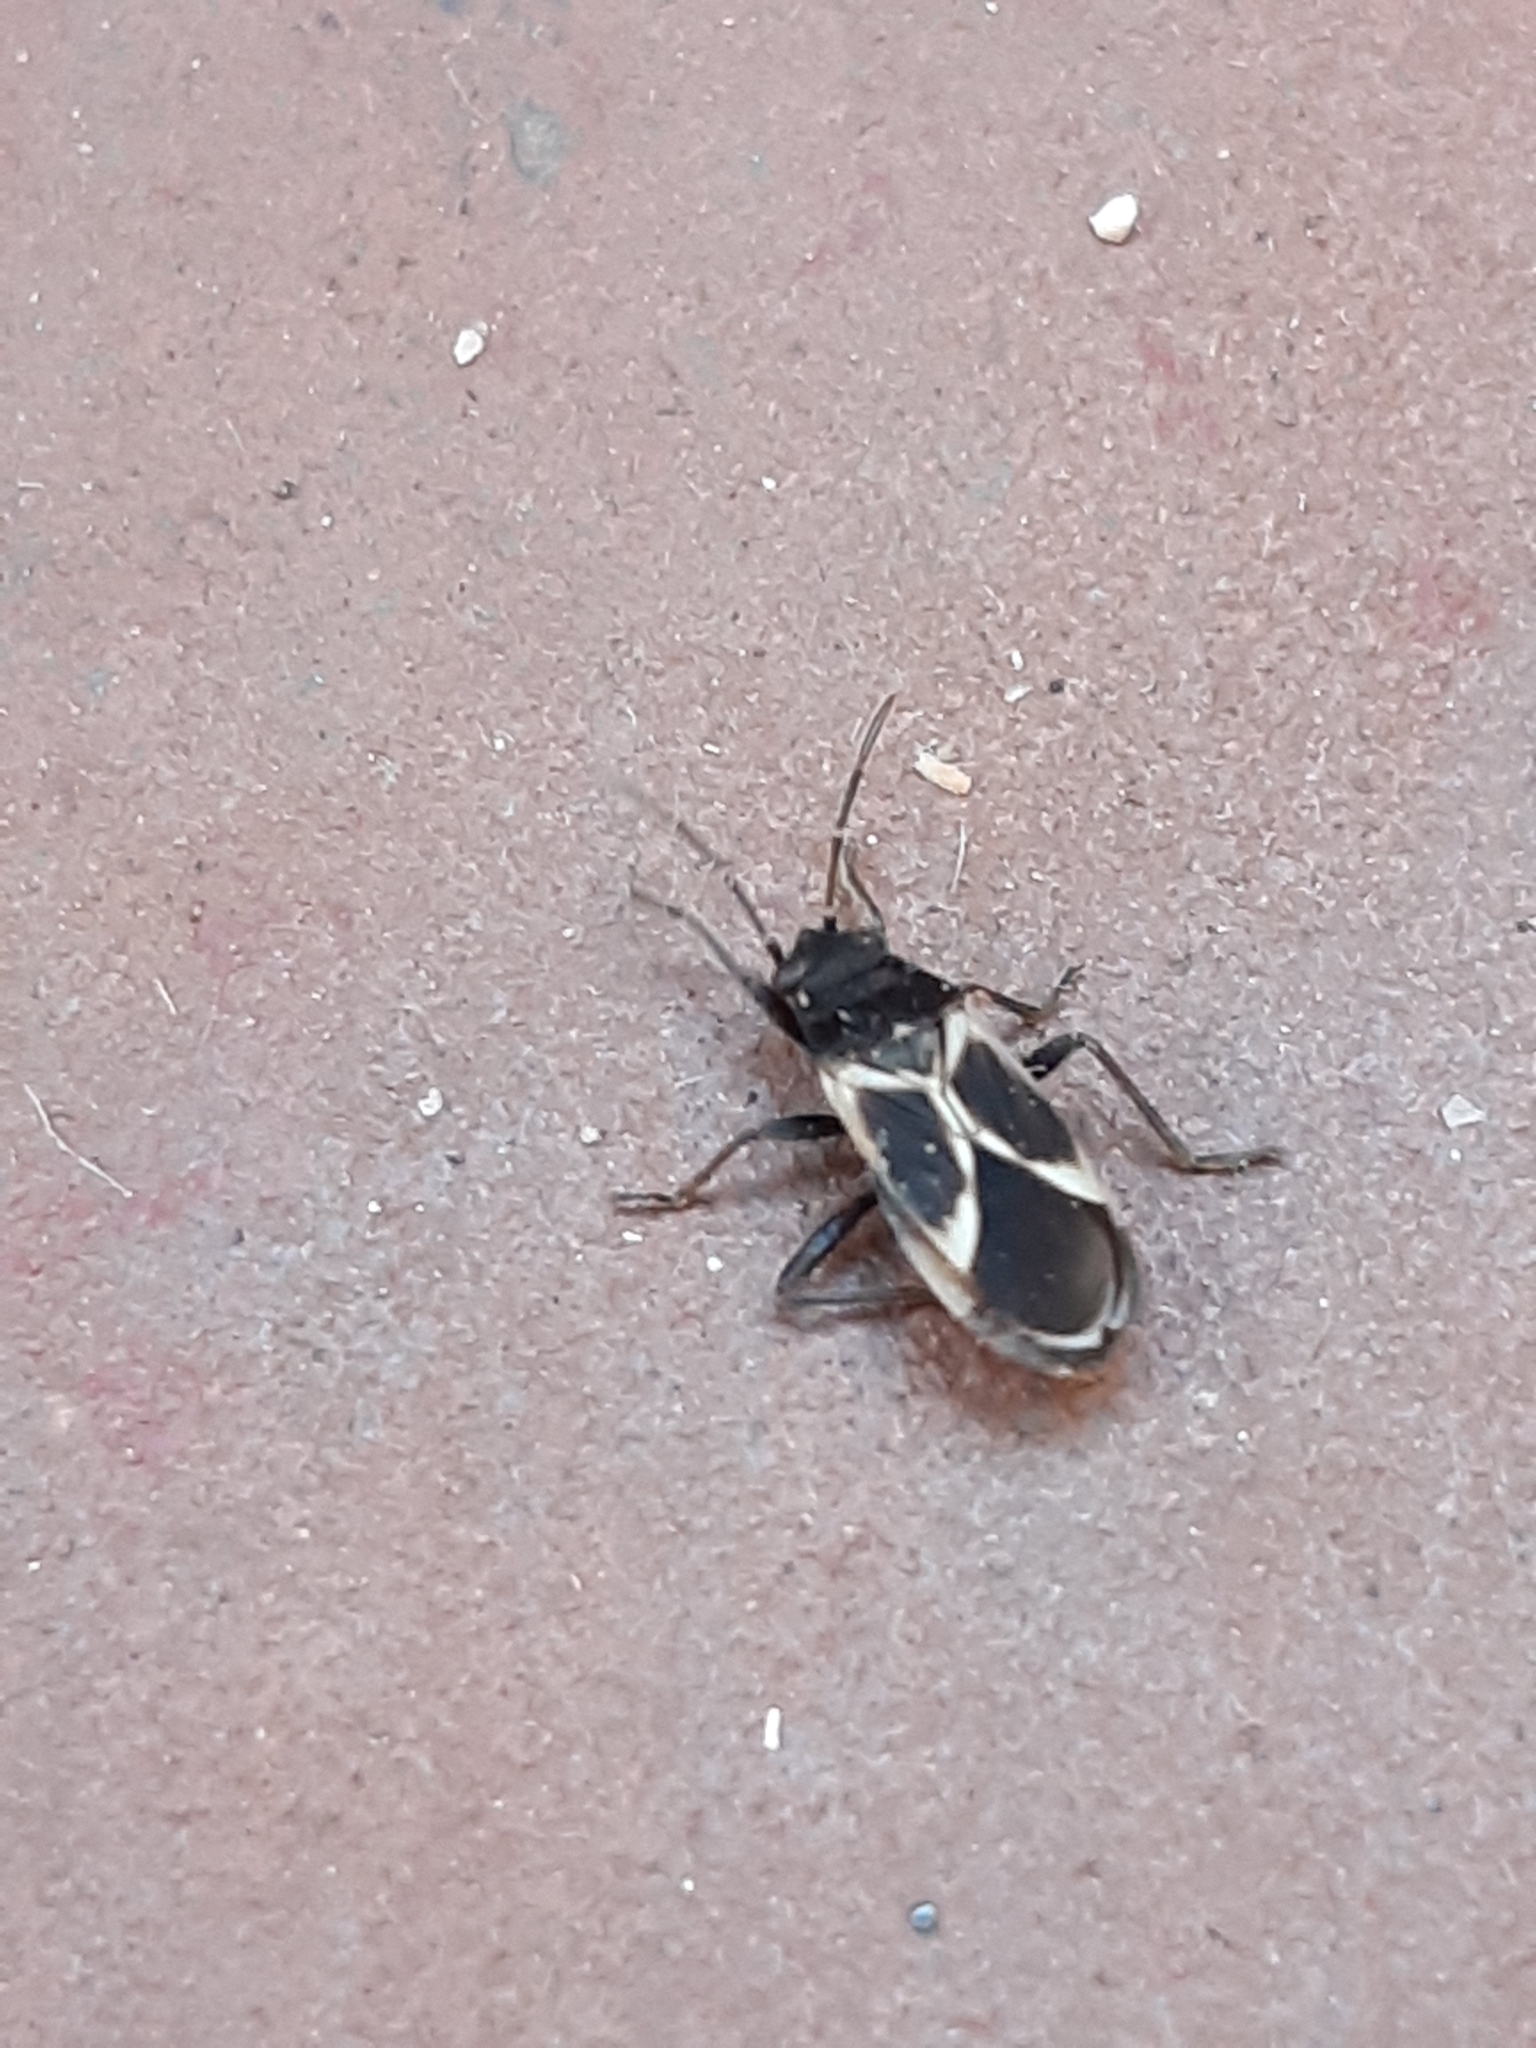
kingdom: Animalia
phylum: Arthropoda
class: Insecta
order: Hemiptera
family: Lygaeidae
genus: Ochrimnus
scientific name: Ochrimnus cinctipennis
